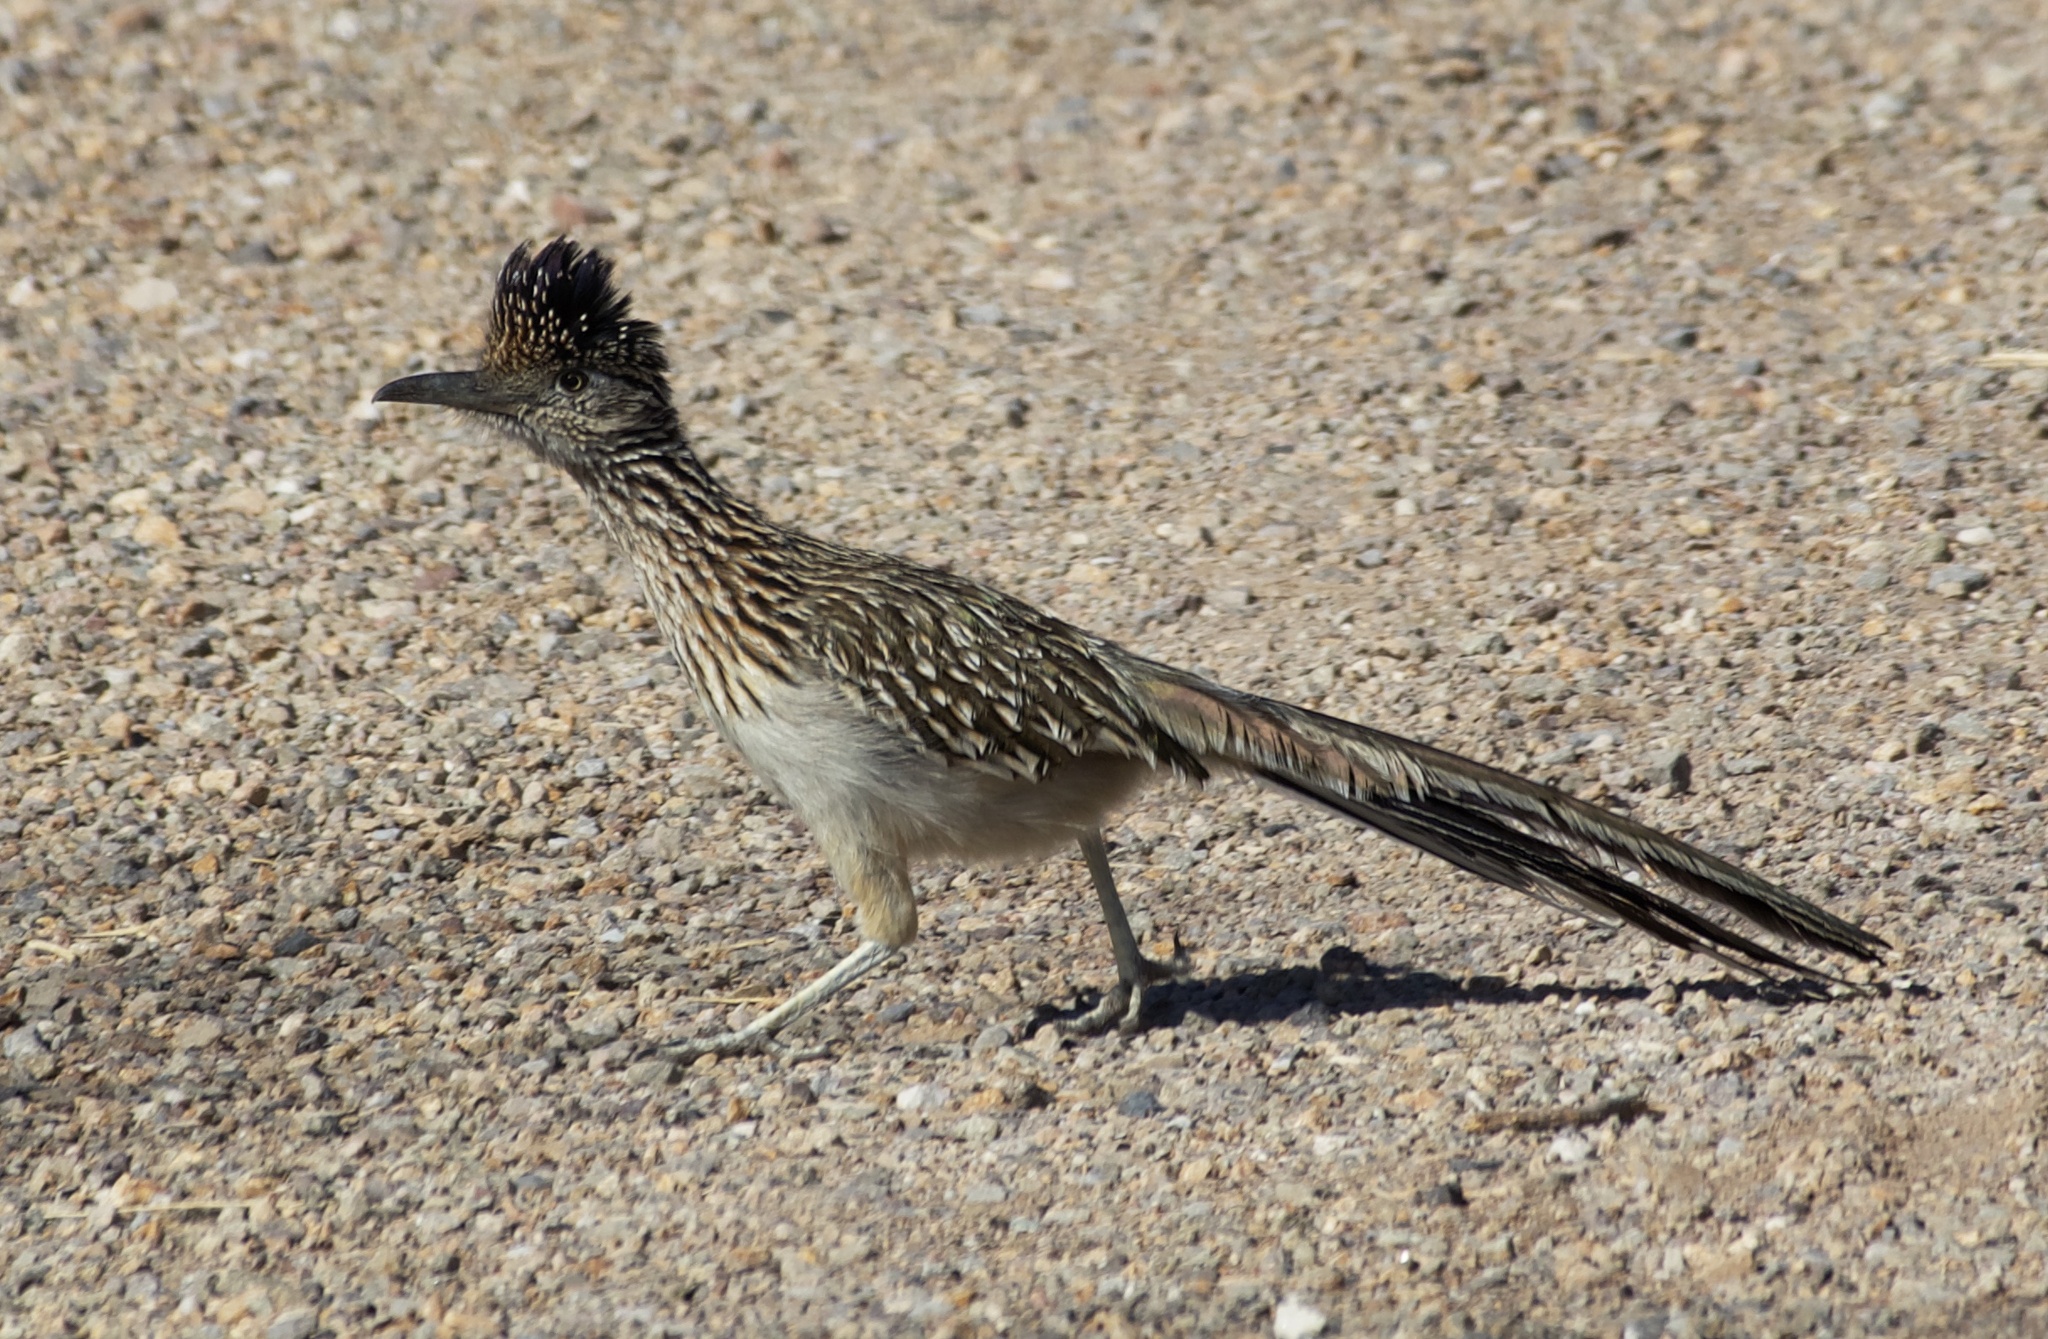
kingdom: Animalia
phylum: Chordata
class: Aves
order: Cuculiformes
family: Cuculidae
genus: Geococcyx
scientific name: Geococcyx californianus
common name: Greater roadrunner
